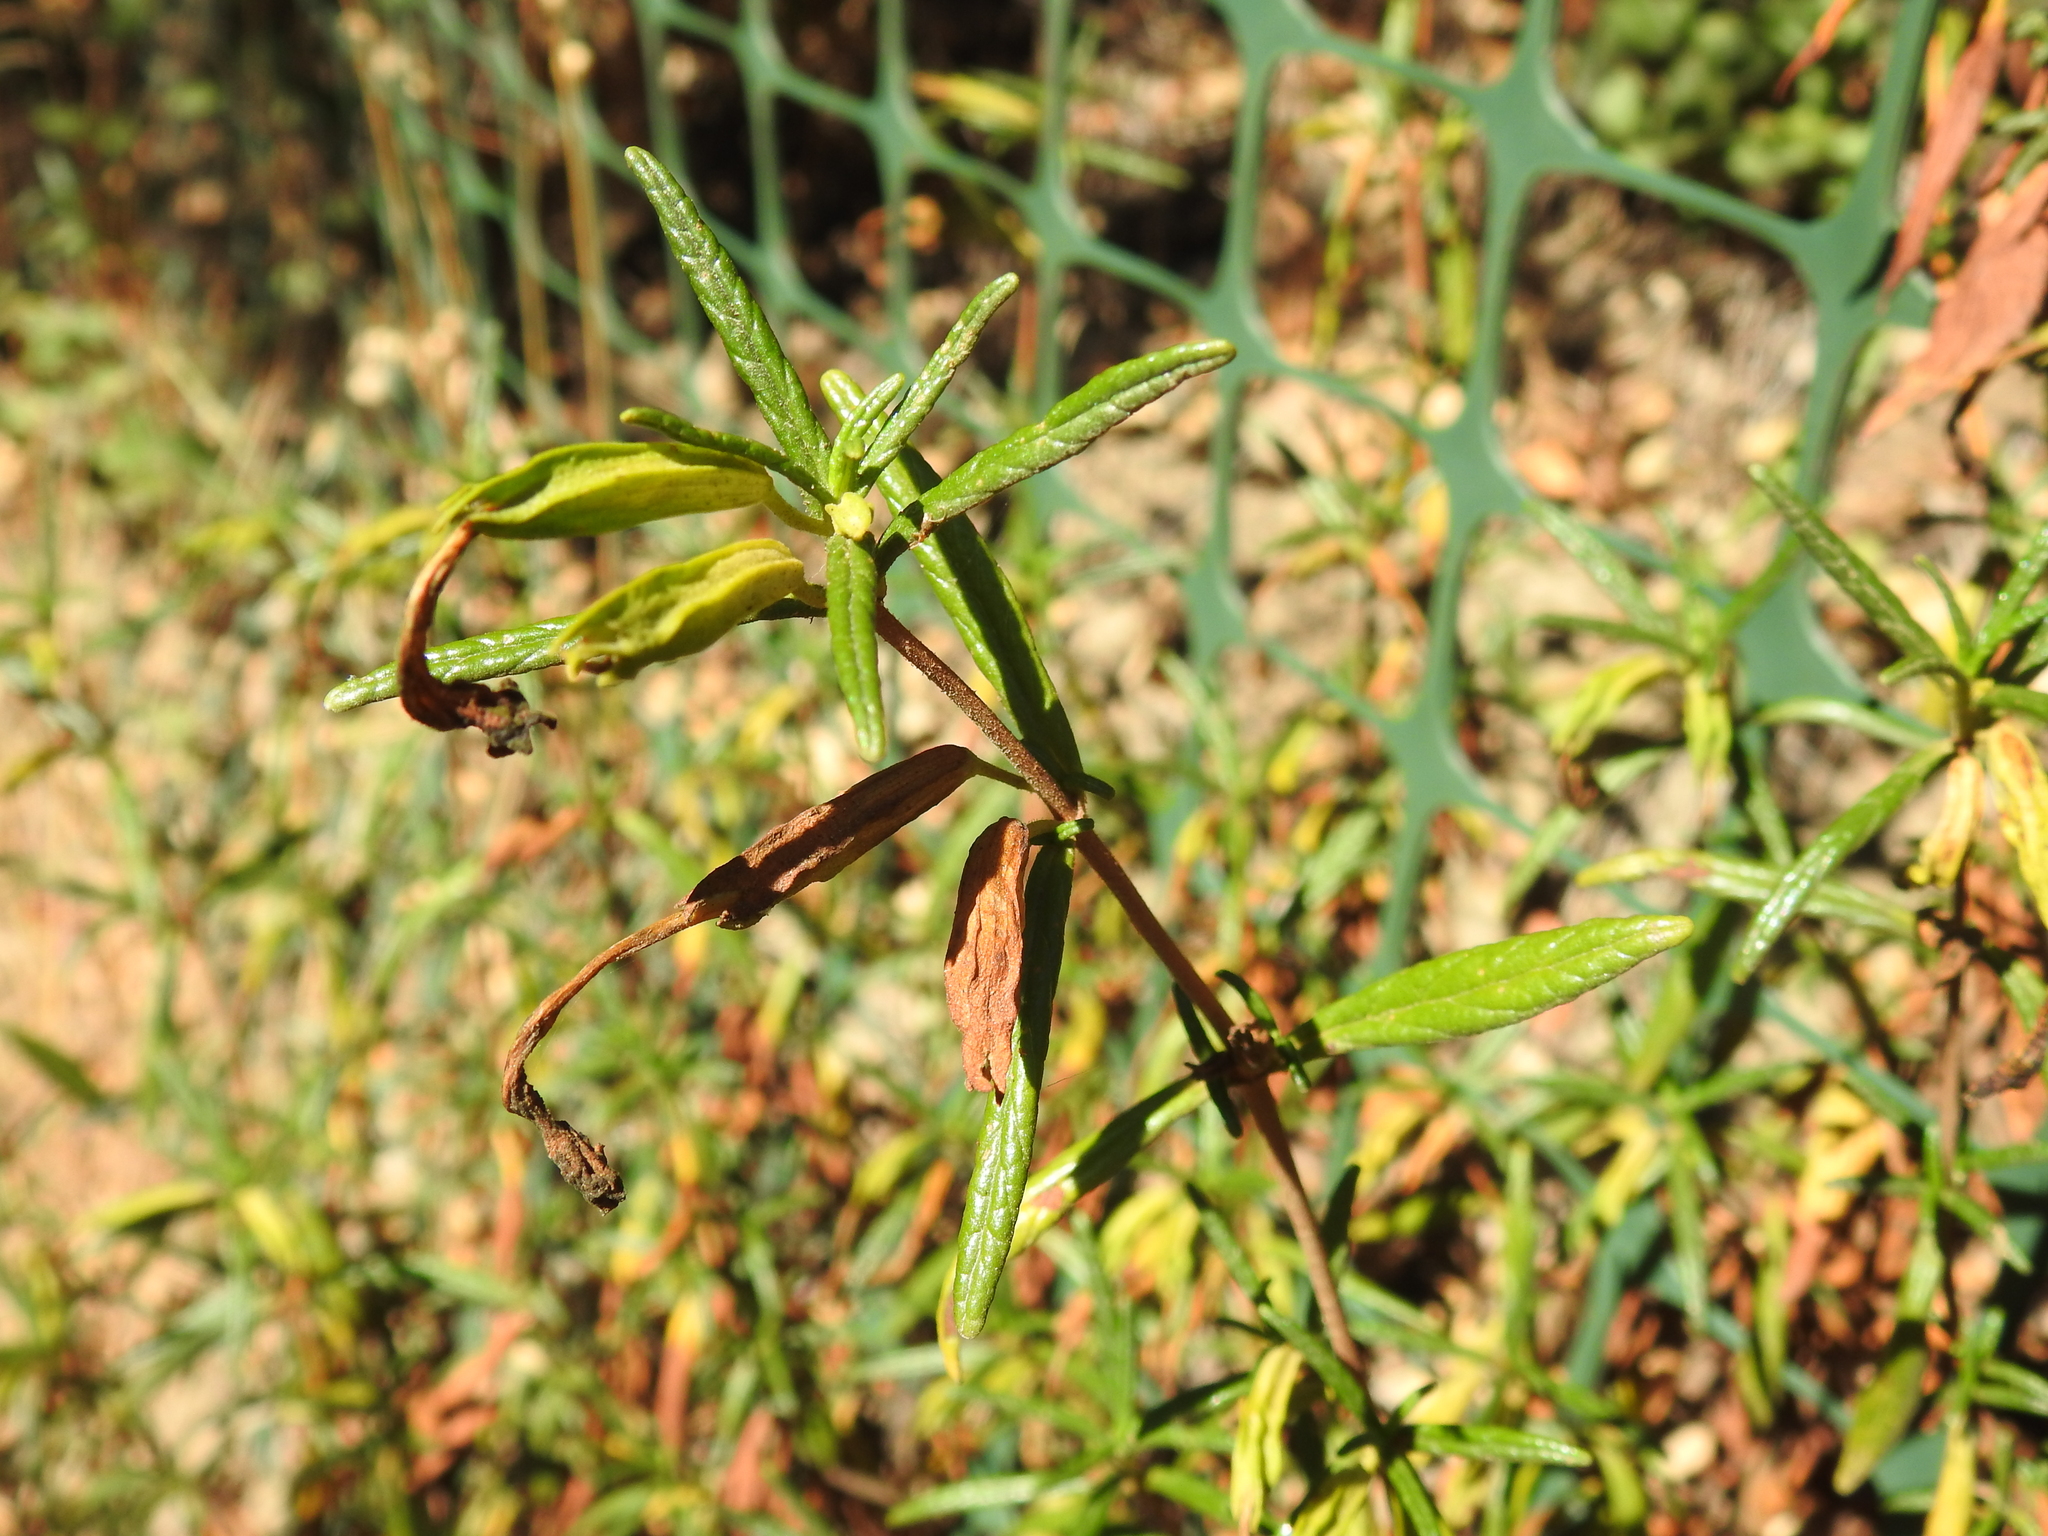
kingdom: Plantae
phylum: Tracheophyta
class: Magnoliopsida
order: Lamiales
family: Phrymaceae
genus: Diplacus
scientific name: Diplacus aurantiacus
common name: Bush monkey-flower
